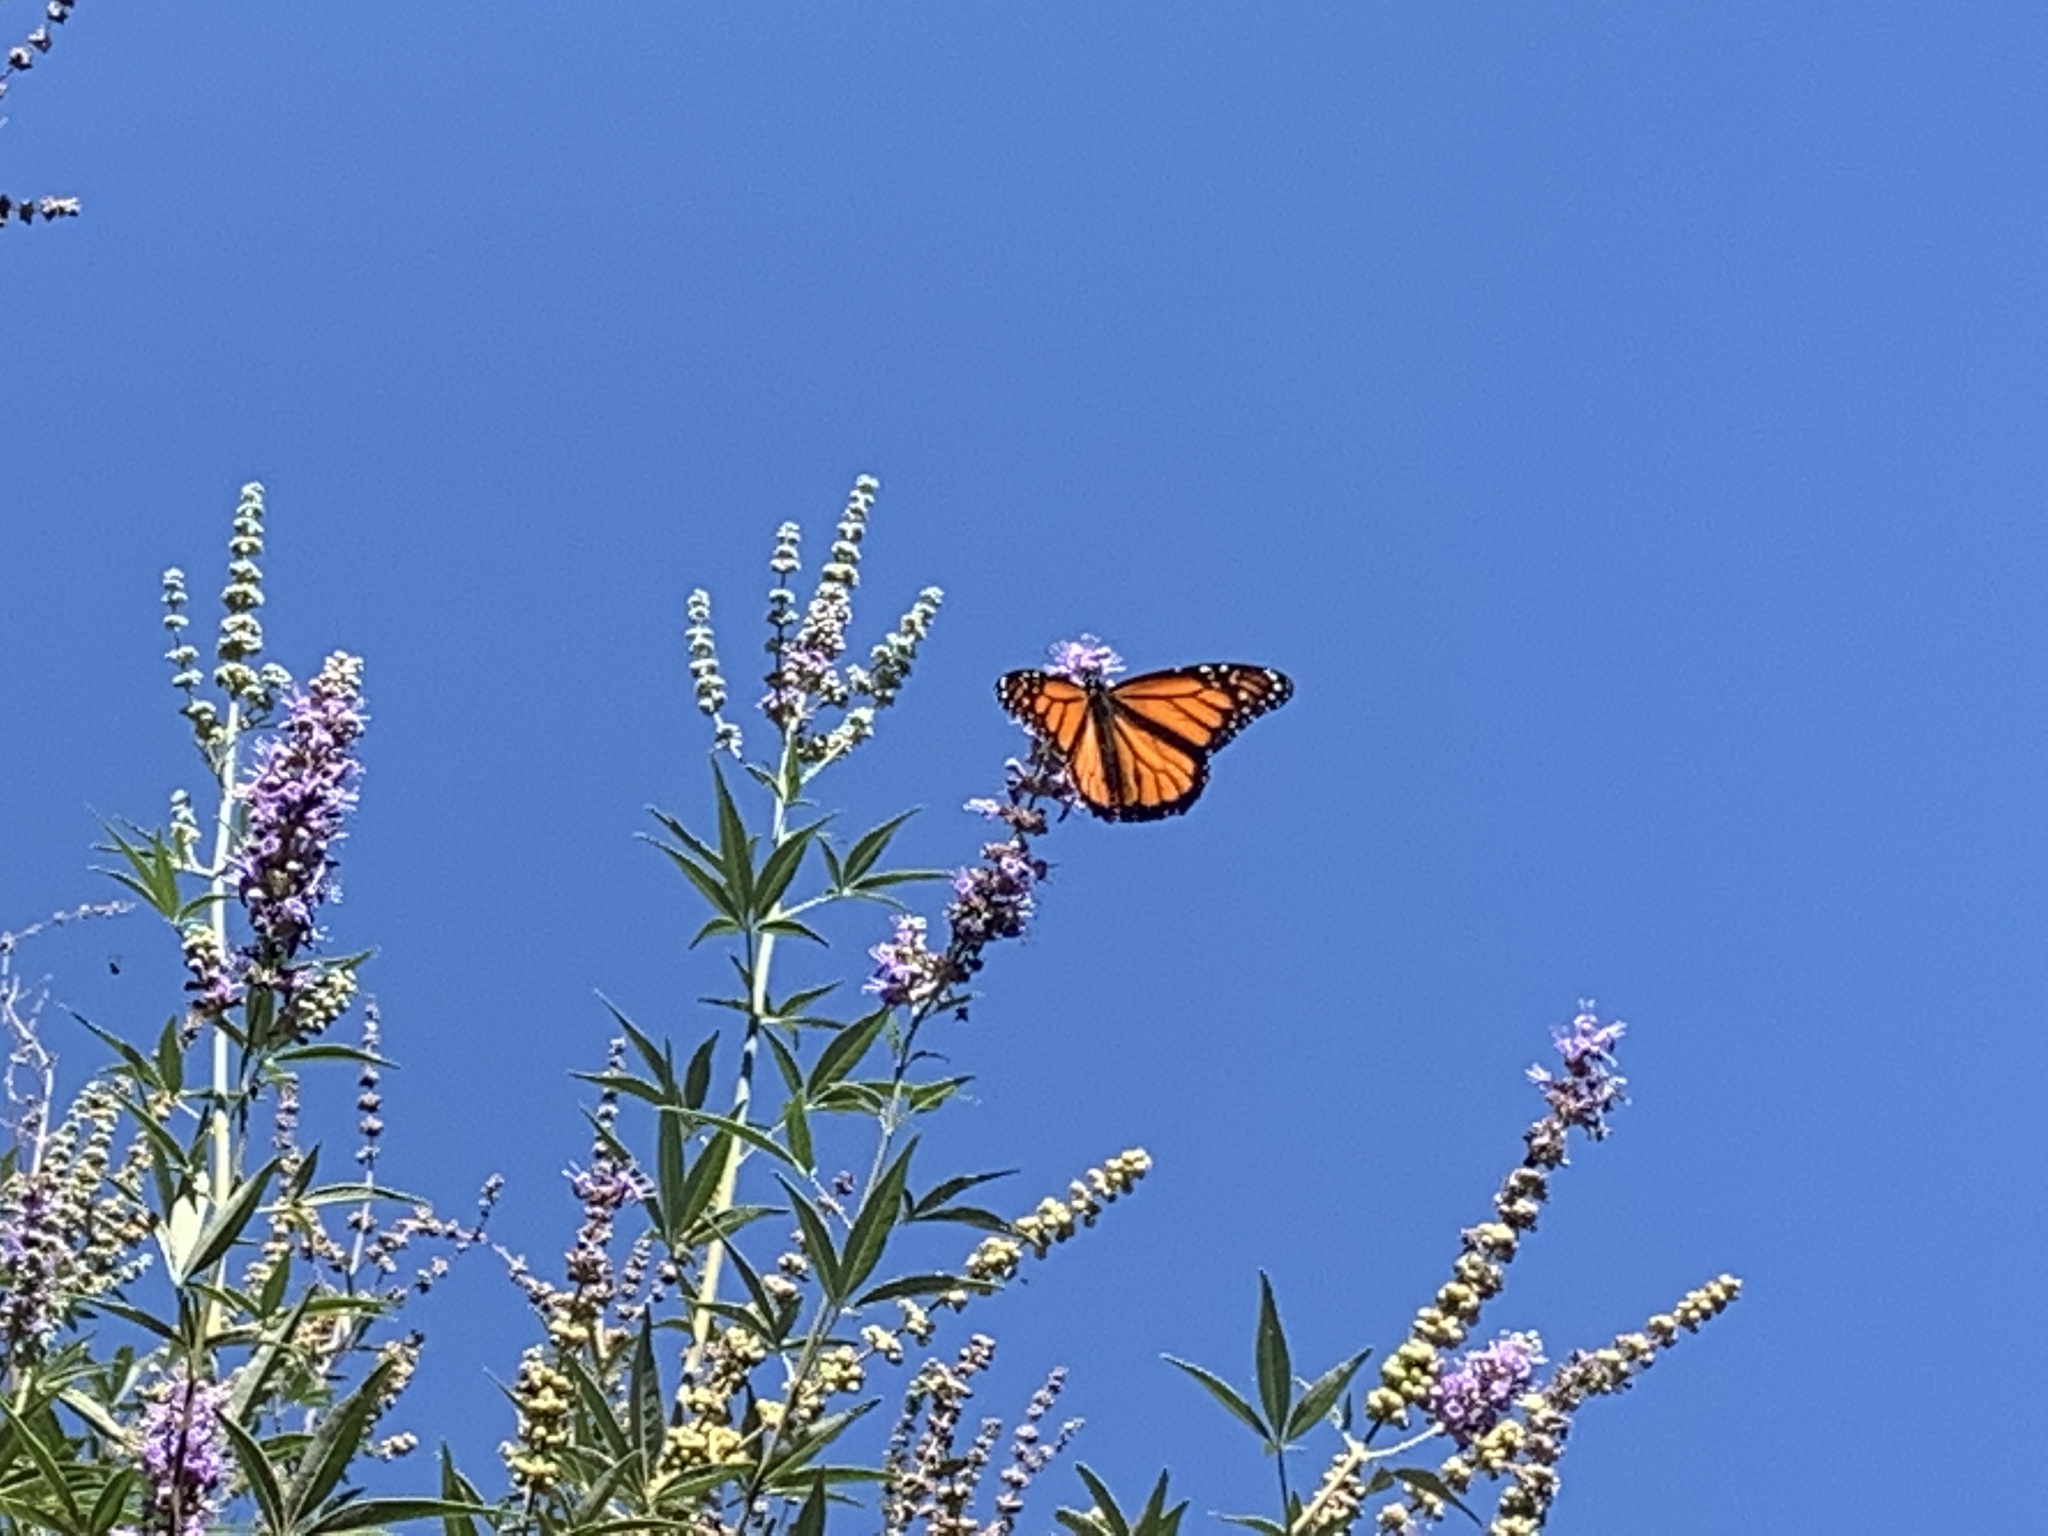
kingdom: Animalia
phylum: Arthropoda
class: Insecta
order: Lepidoptera
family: Nymphalidae
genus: Danaus
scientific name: Danaus plexippus
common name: Monarch
